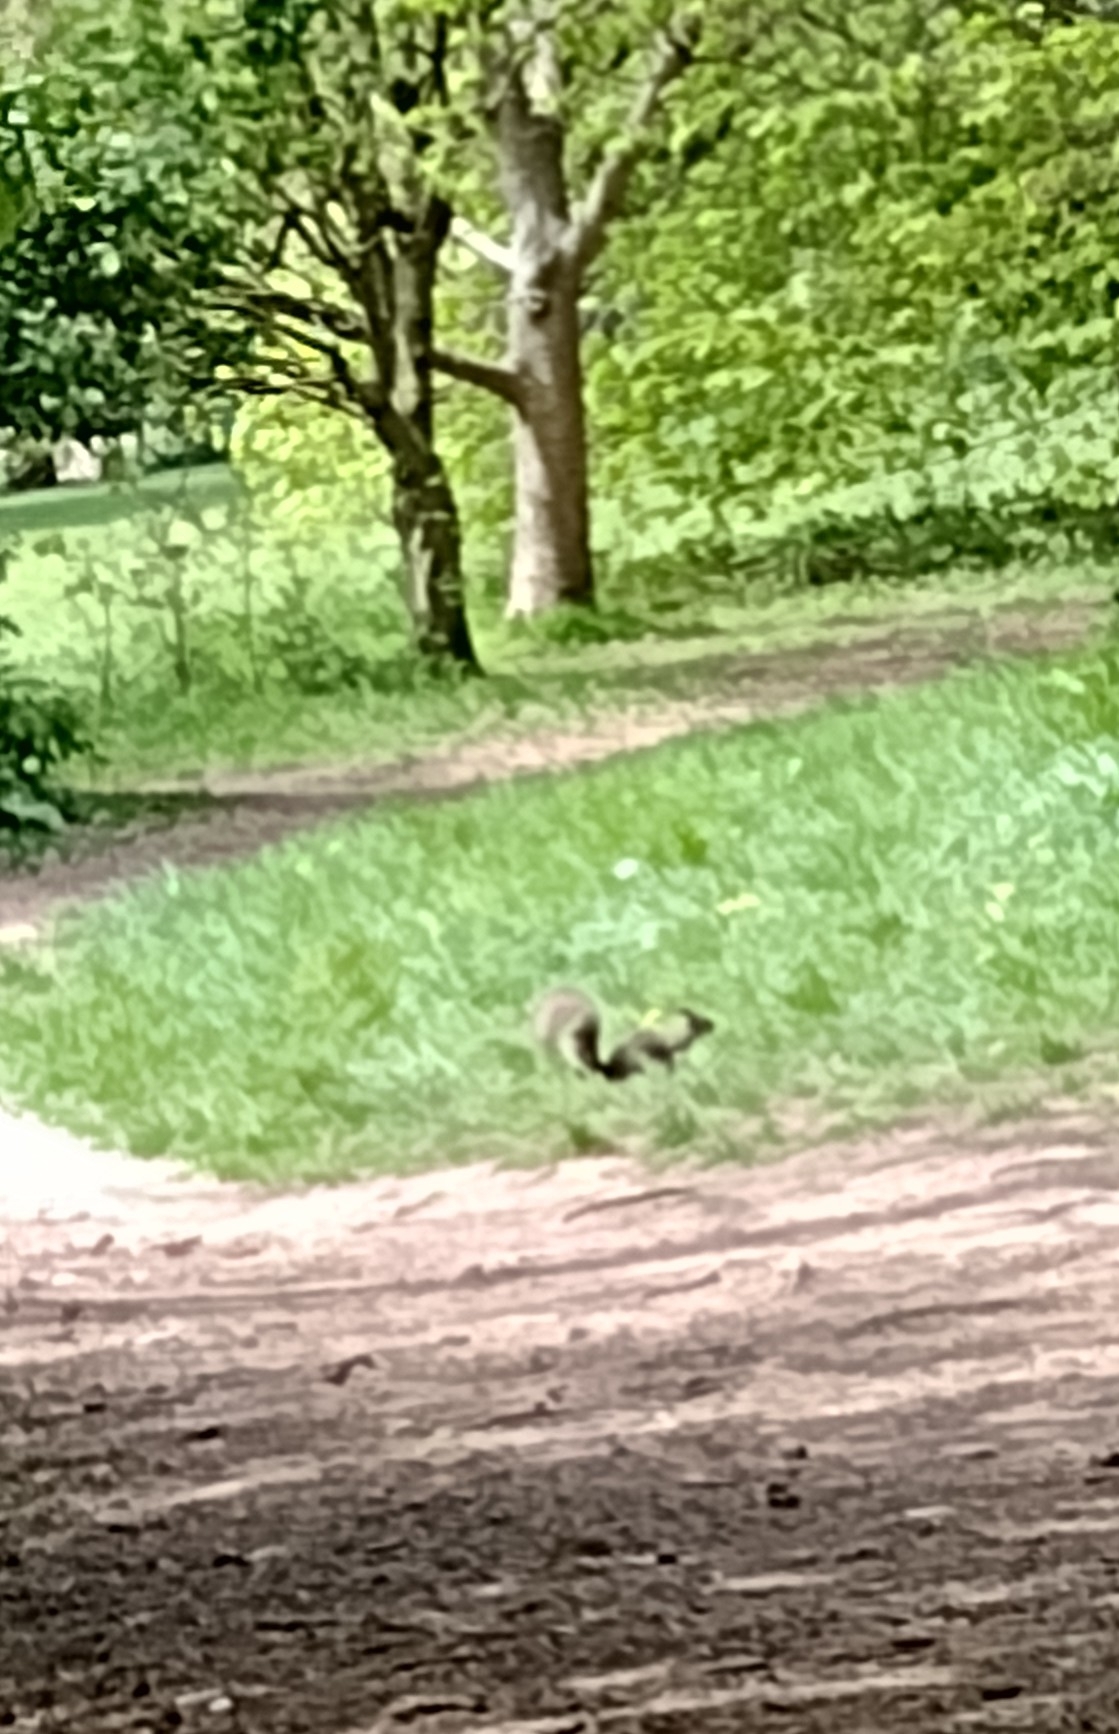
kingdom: Animalia
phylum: Chordata
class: Mammalia
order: Rodentia
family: Sciuridae
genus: Sciurus
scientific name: Sciurus carolinensis
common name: Eastern gray squirrel
